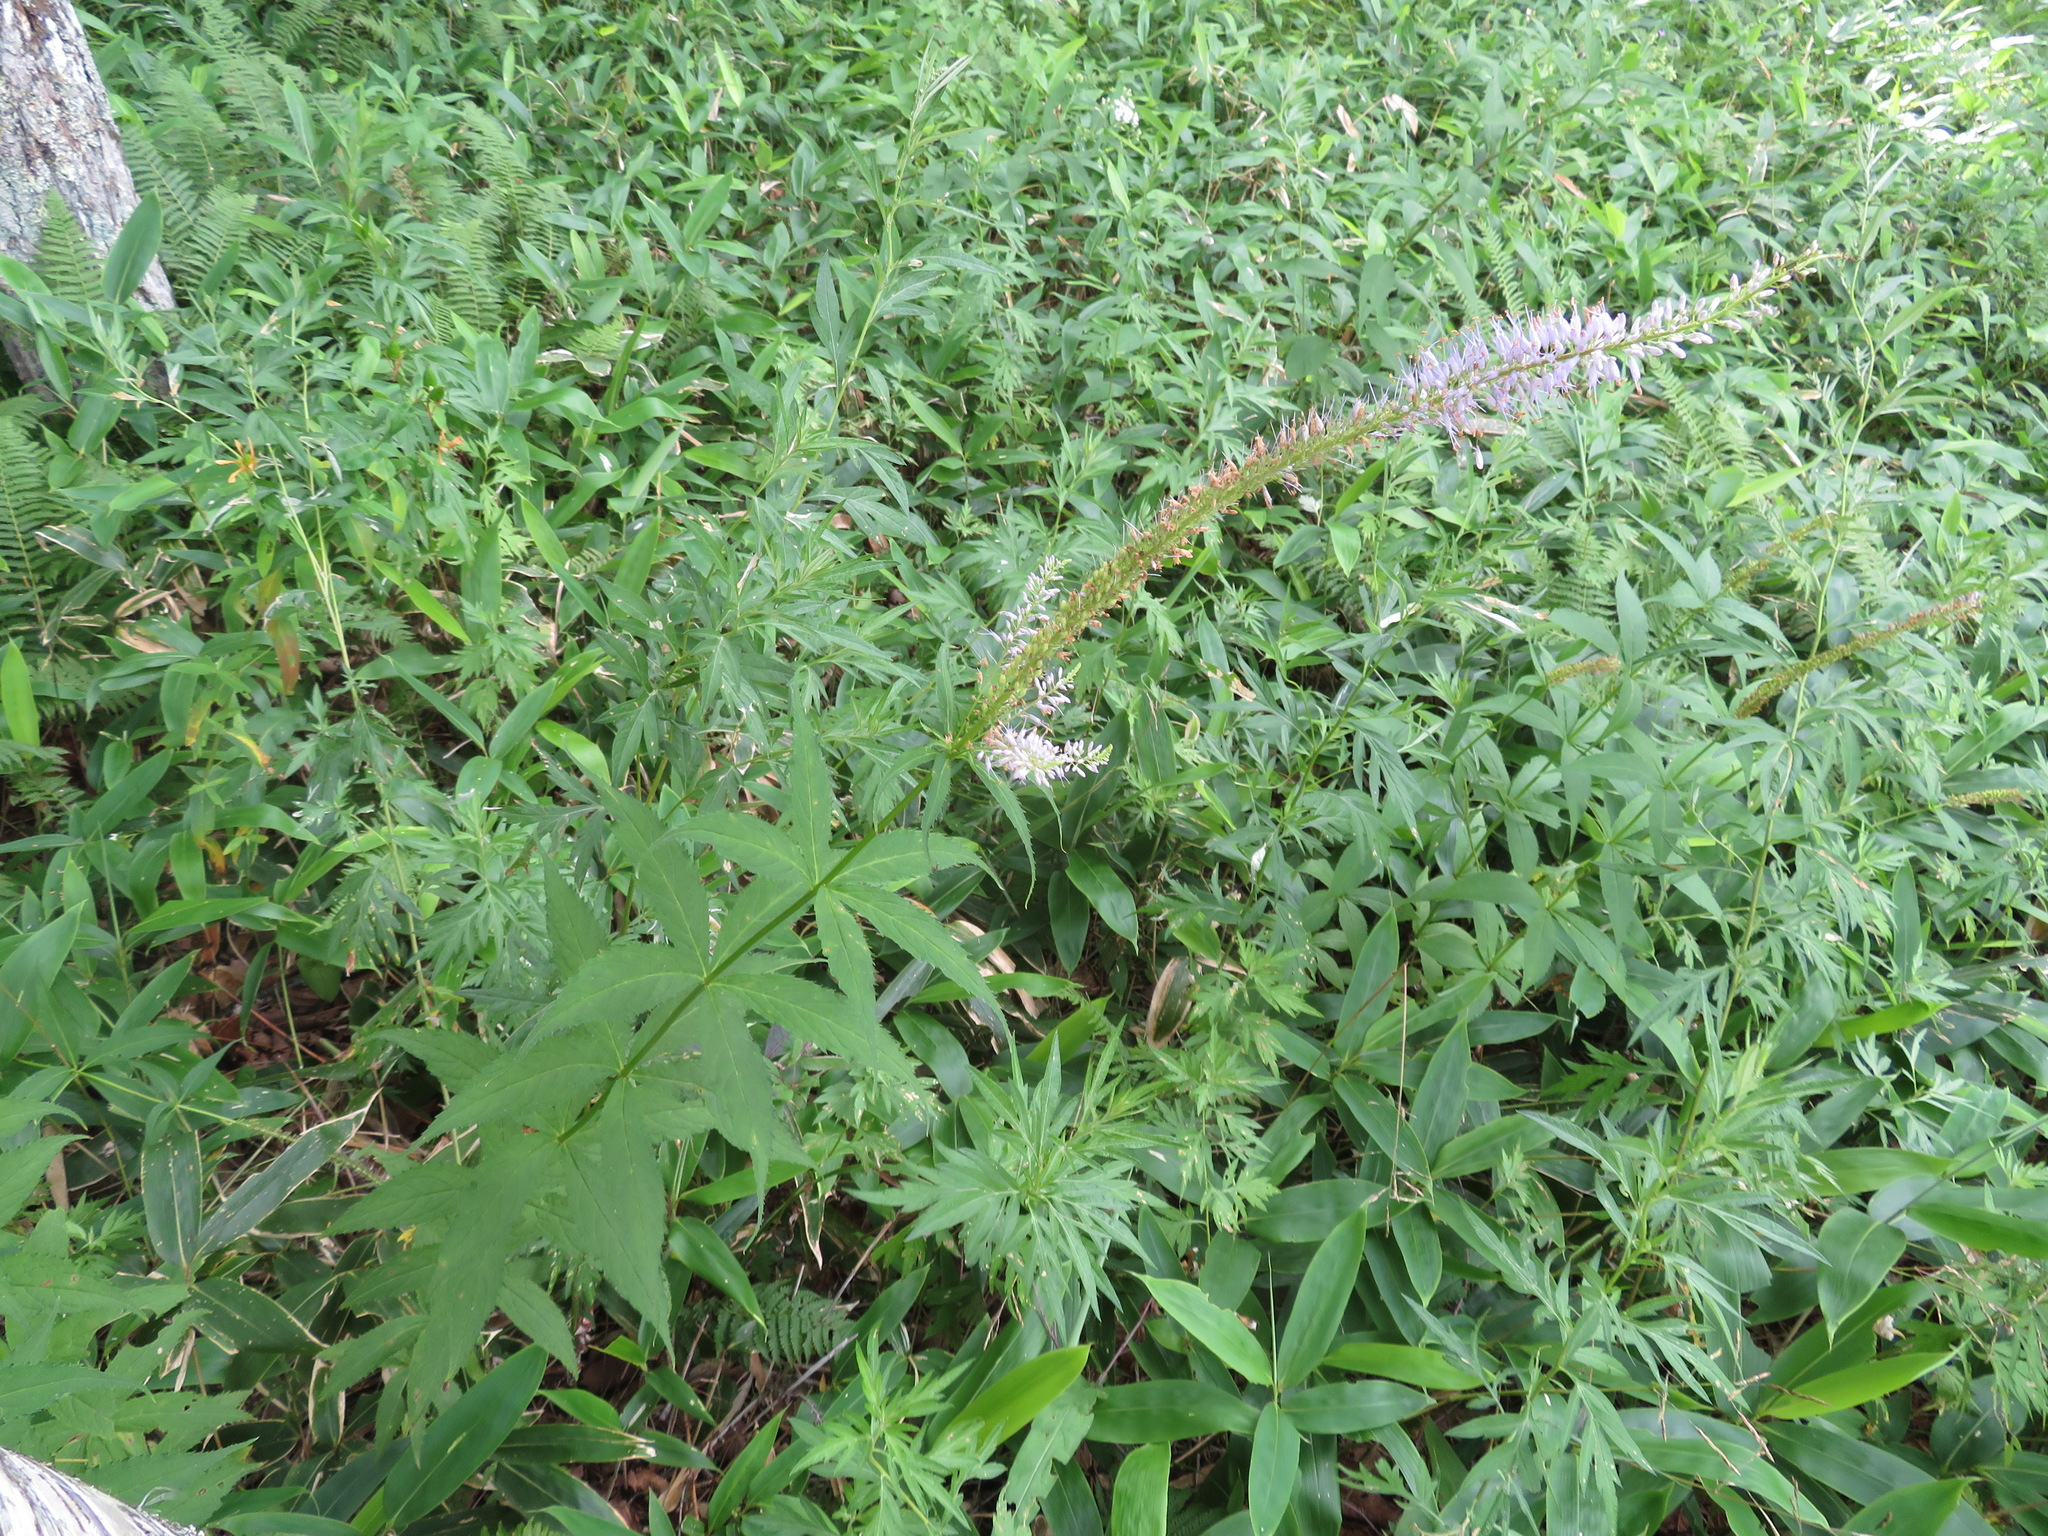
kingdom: Plantae
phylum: Tracheophyta
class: Magnoliopsida
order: Lamiales
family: Plantaginaceae
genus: Veronicastrum
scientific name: Veronicastrum japonicum
